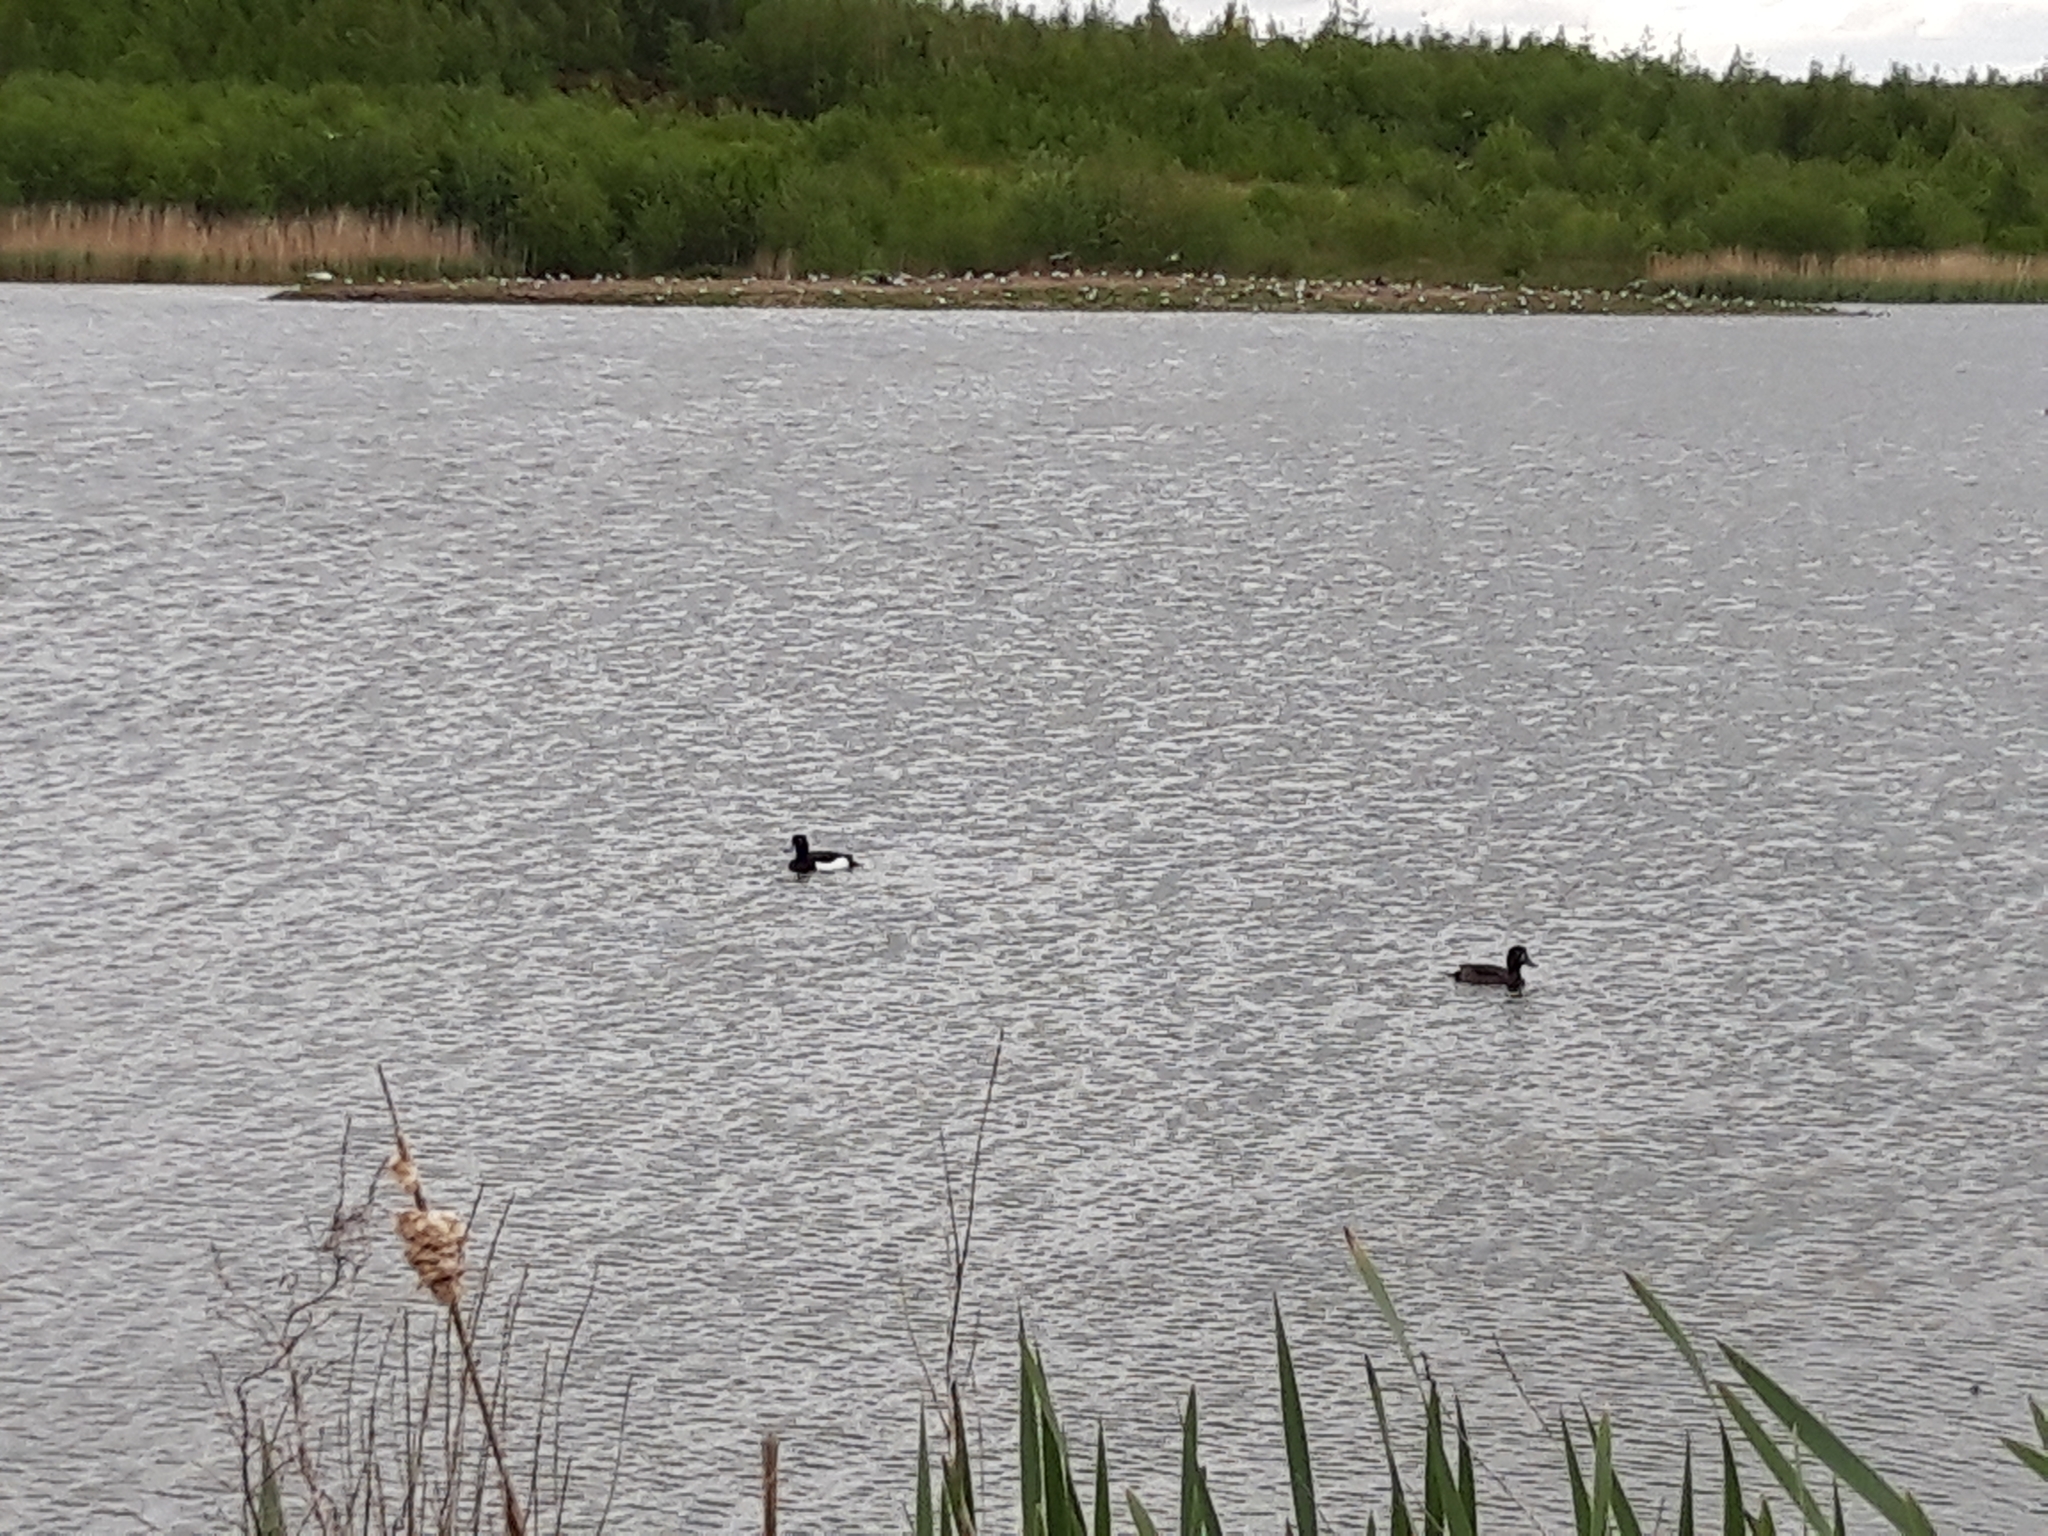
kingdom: Animalia
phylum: Chordata
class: Aves
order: Anseriformes
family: Anatidae
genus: Aythya
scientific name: Aythya fuligula
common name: Tufted duck
